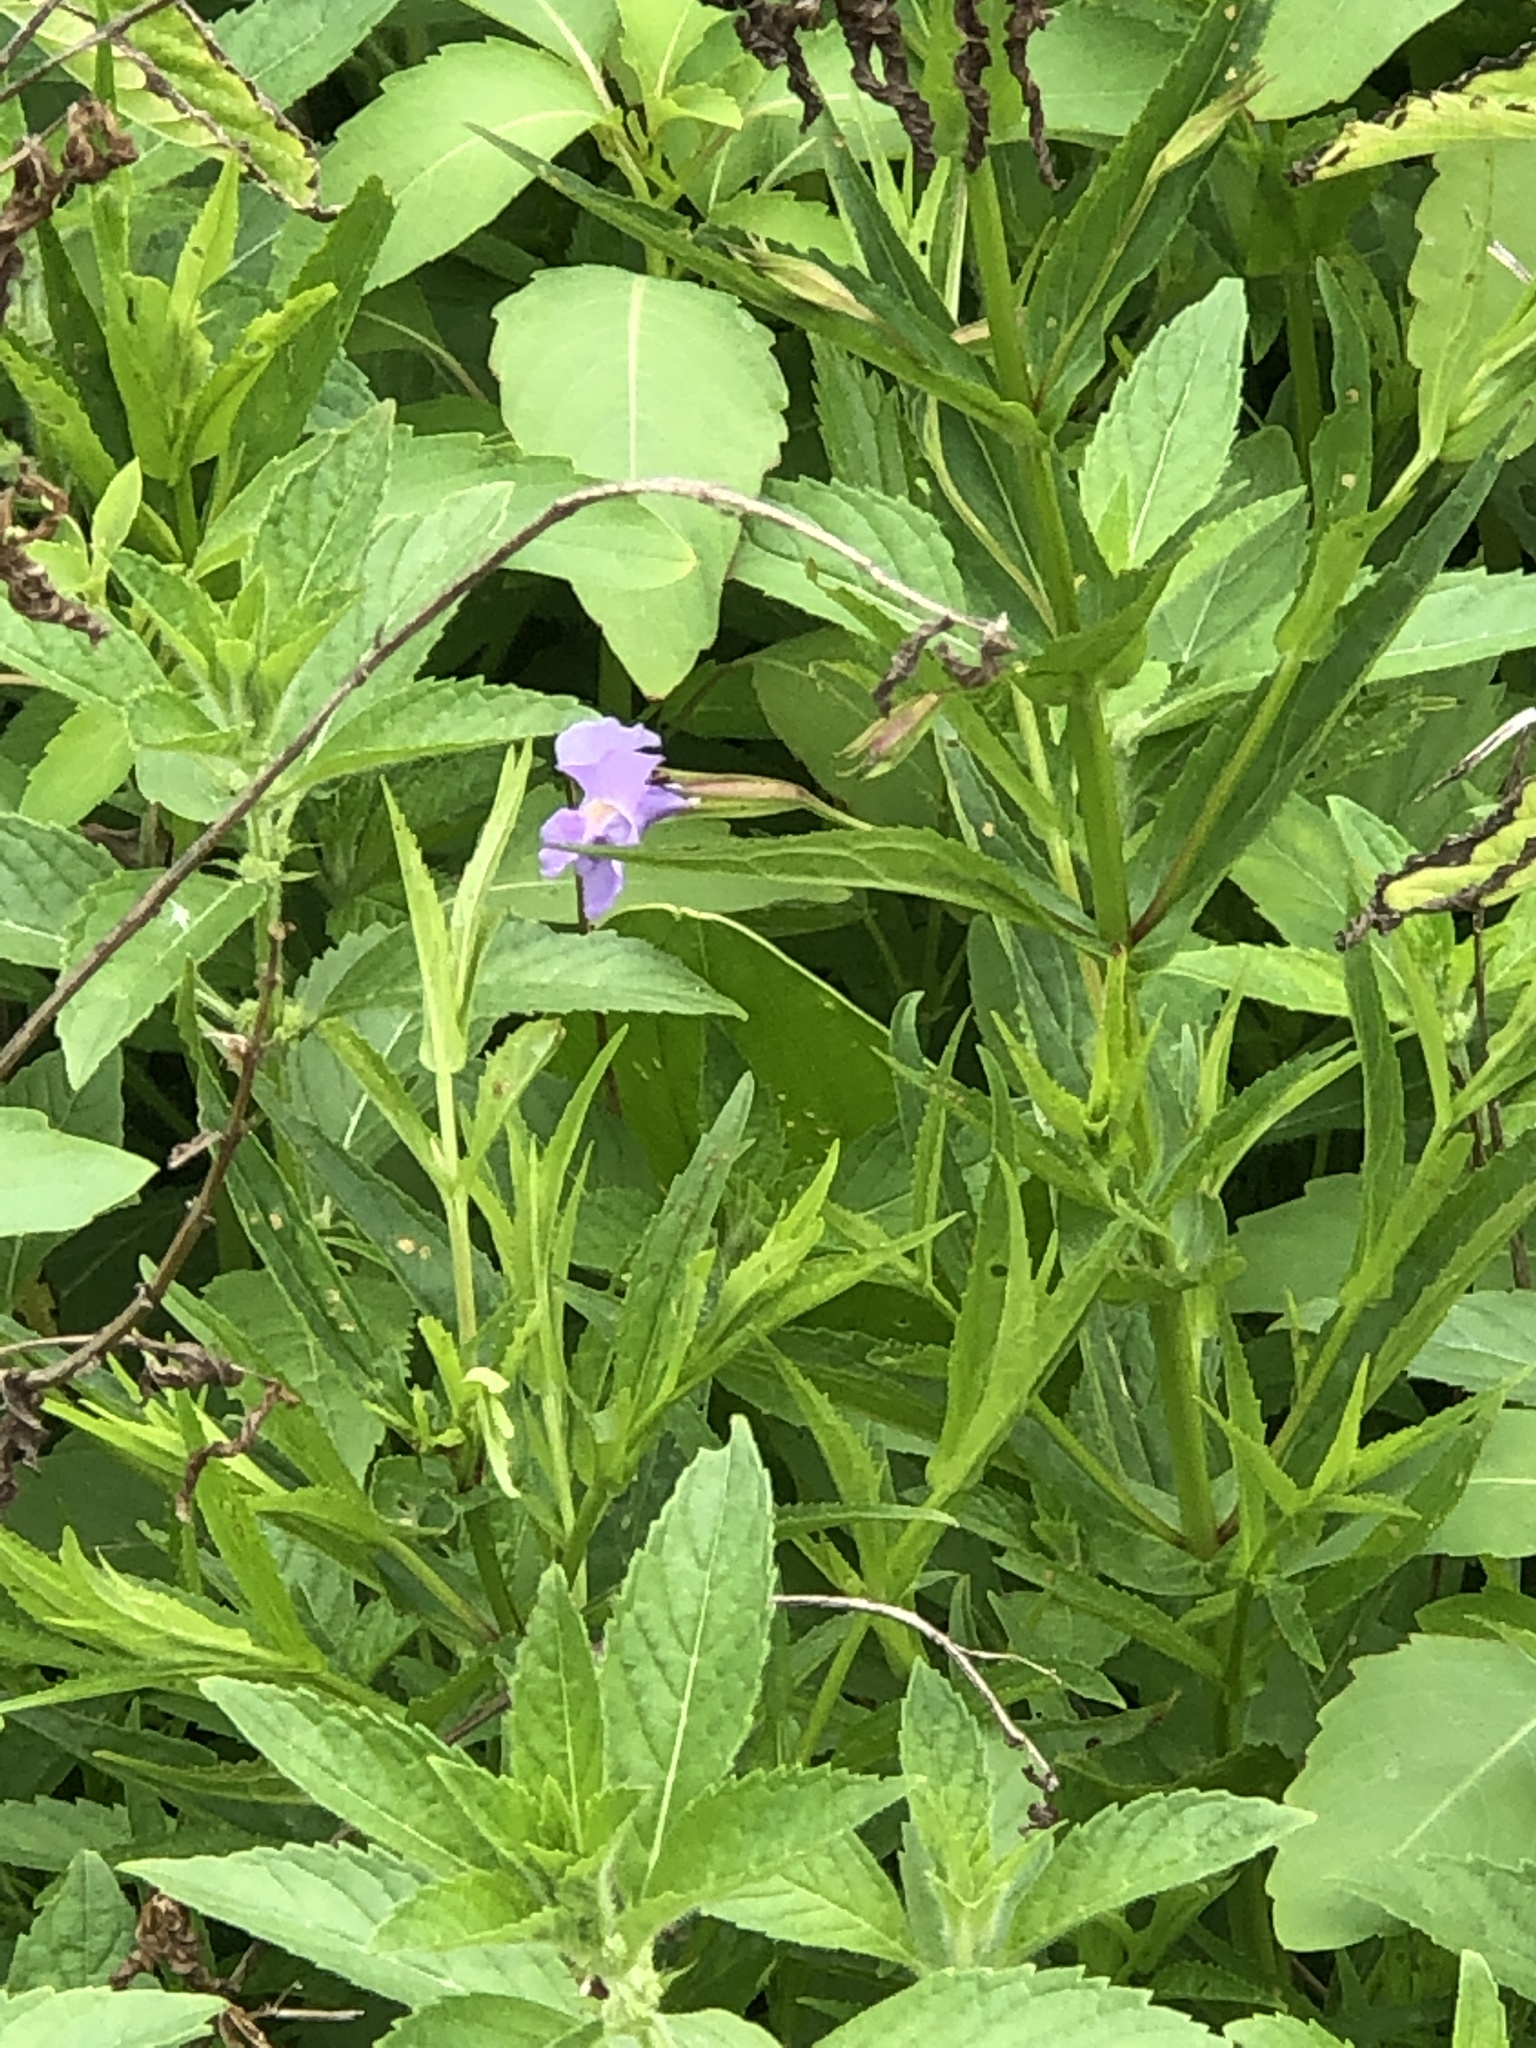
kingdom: Plantae
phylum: Tracheophyta
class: Magnoliopsida
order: Lamiales
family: Phrymaceae
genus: Mimulus
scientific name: Mimulus ringens
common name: Allegheny monkeyflower
